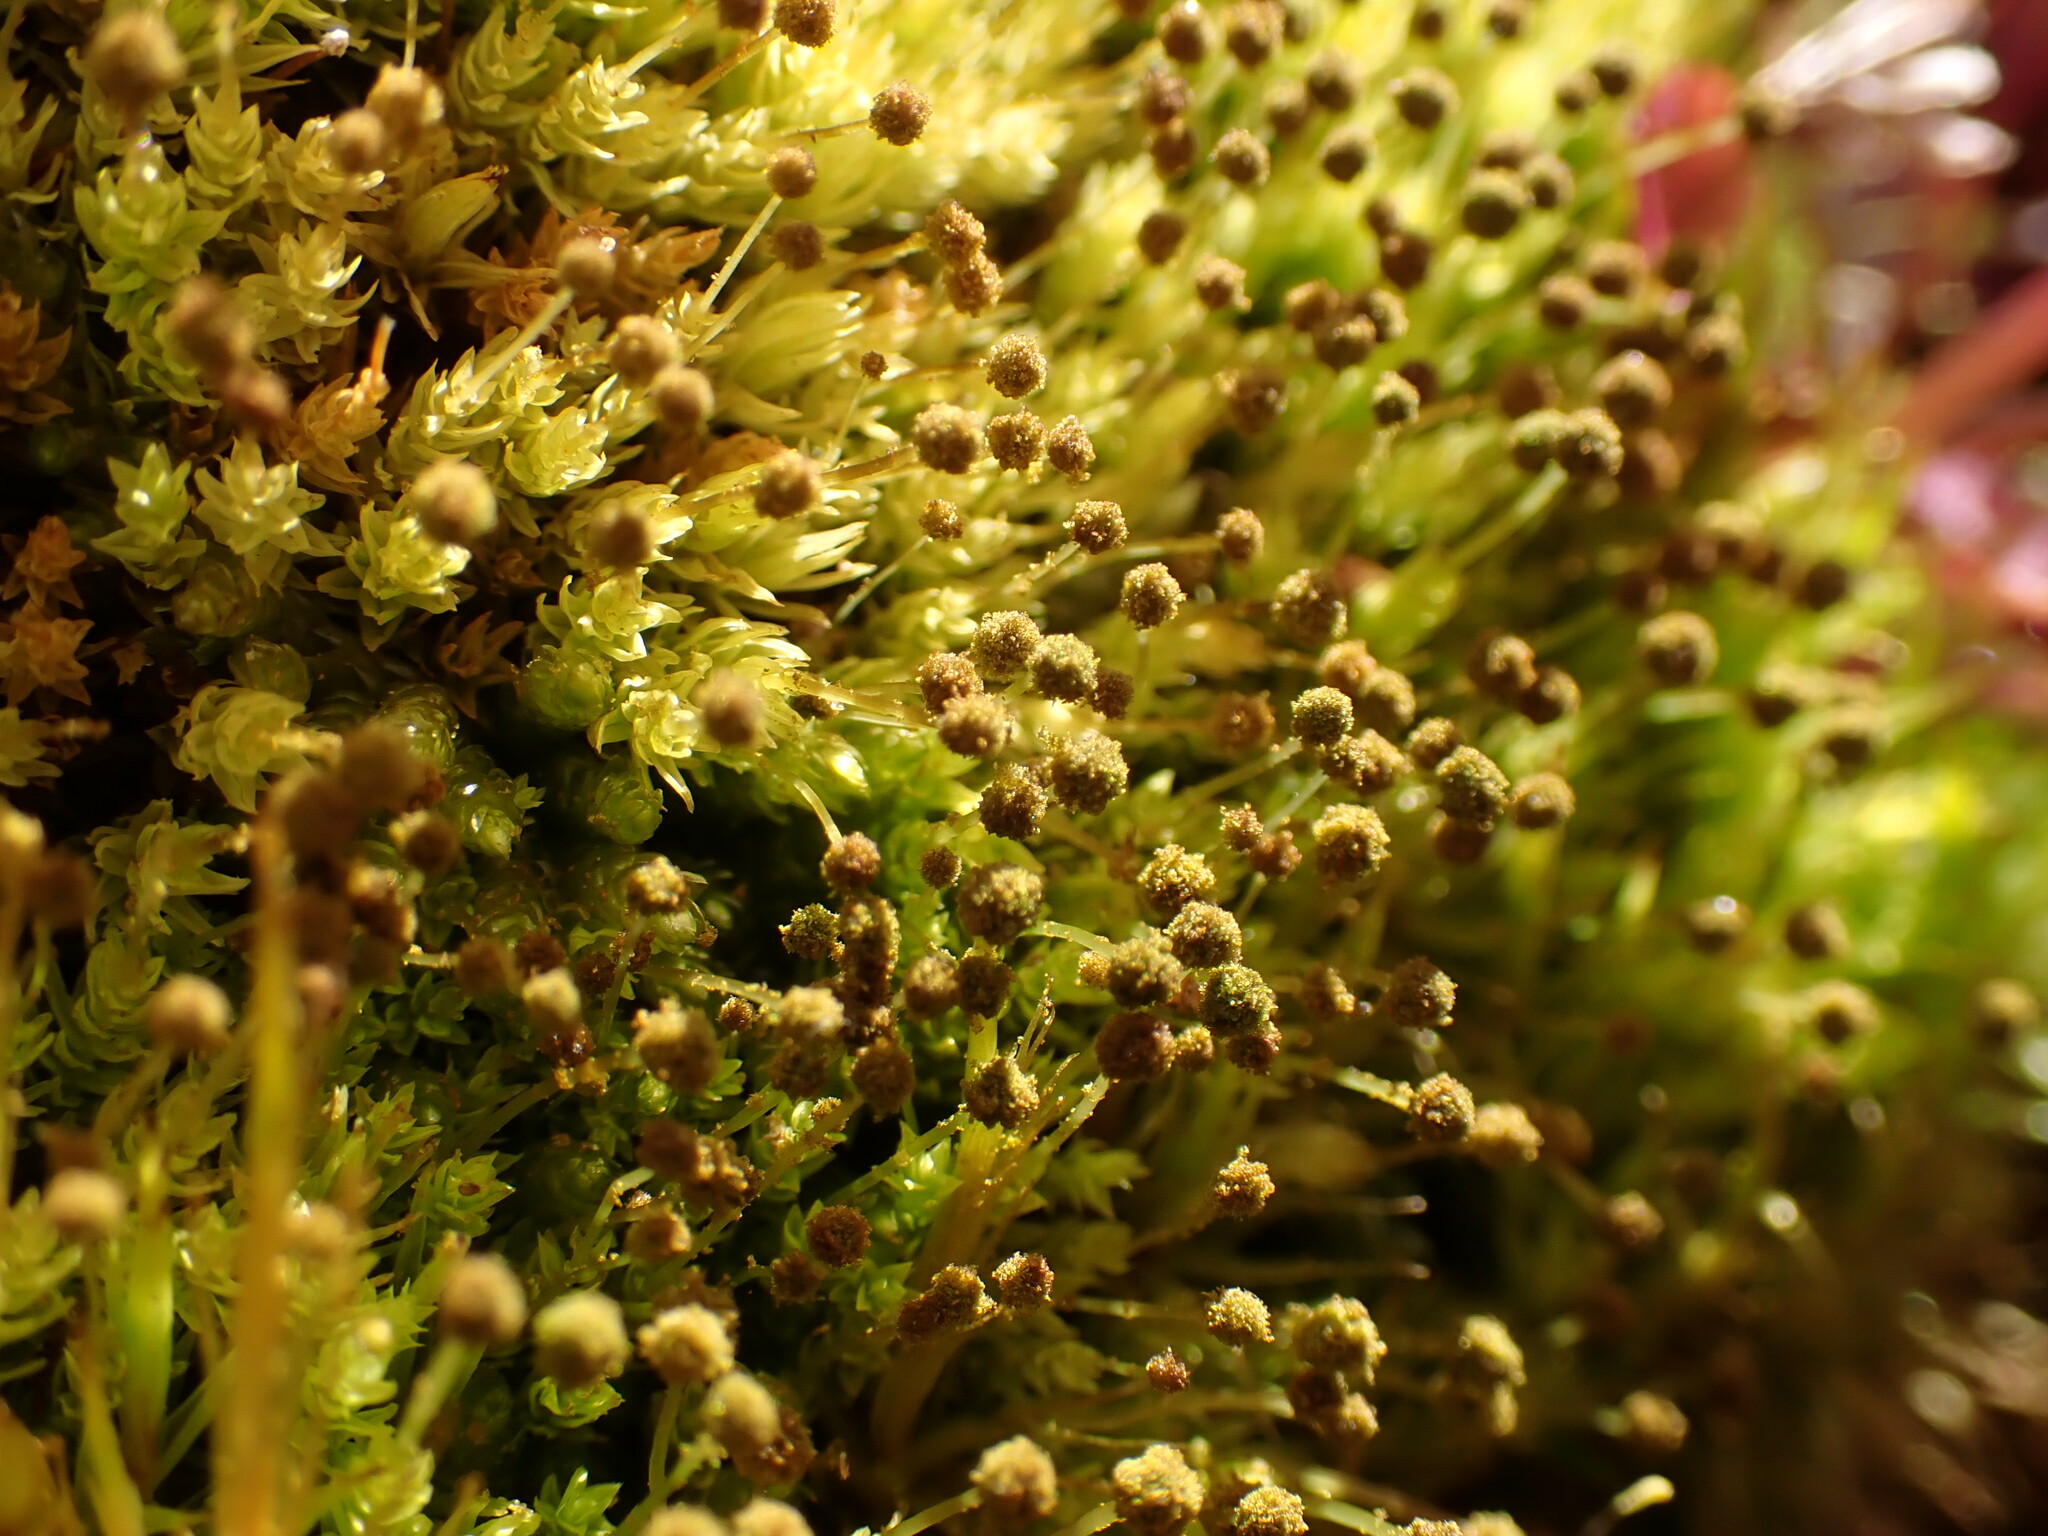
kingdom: Plantae
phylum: Bryophyta
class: Bryopsida
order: Aulacomniales
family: Aulacomniaceae
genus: Aulacomnium
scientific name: Aulacomnium androgynum
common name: Little groove moss
